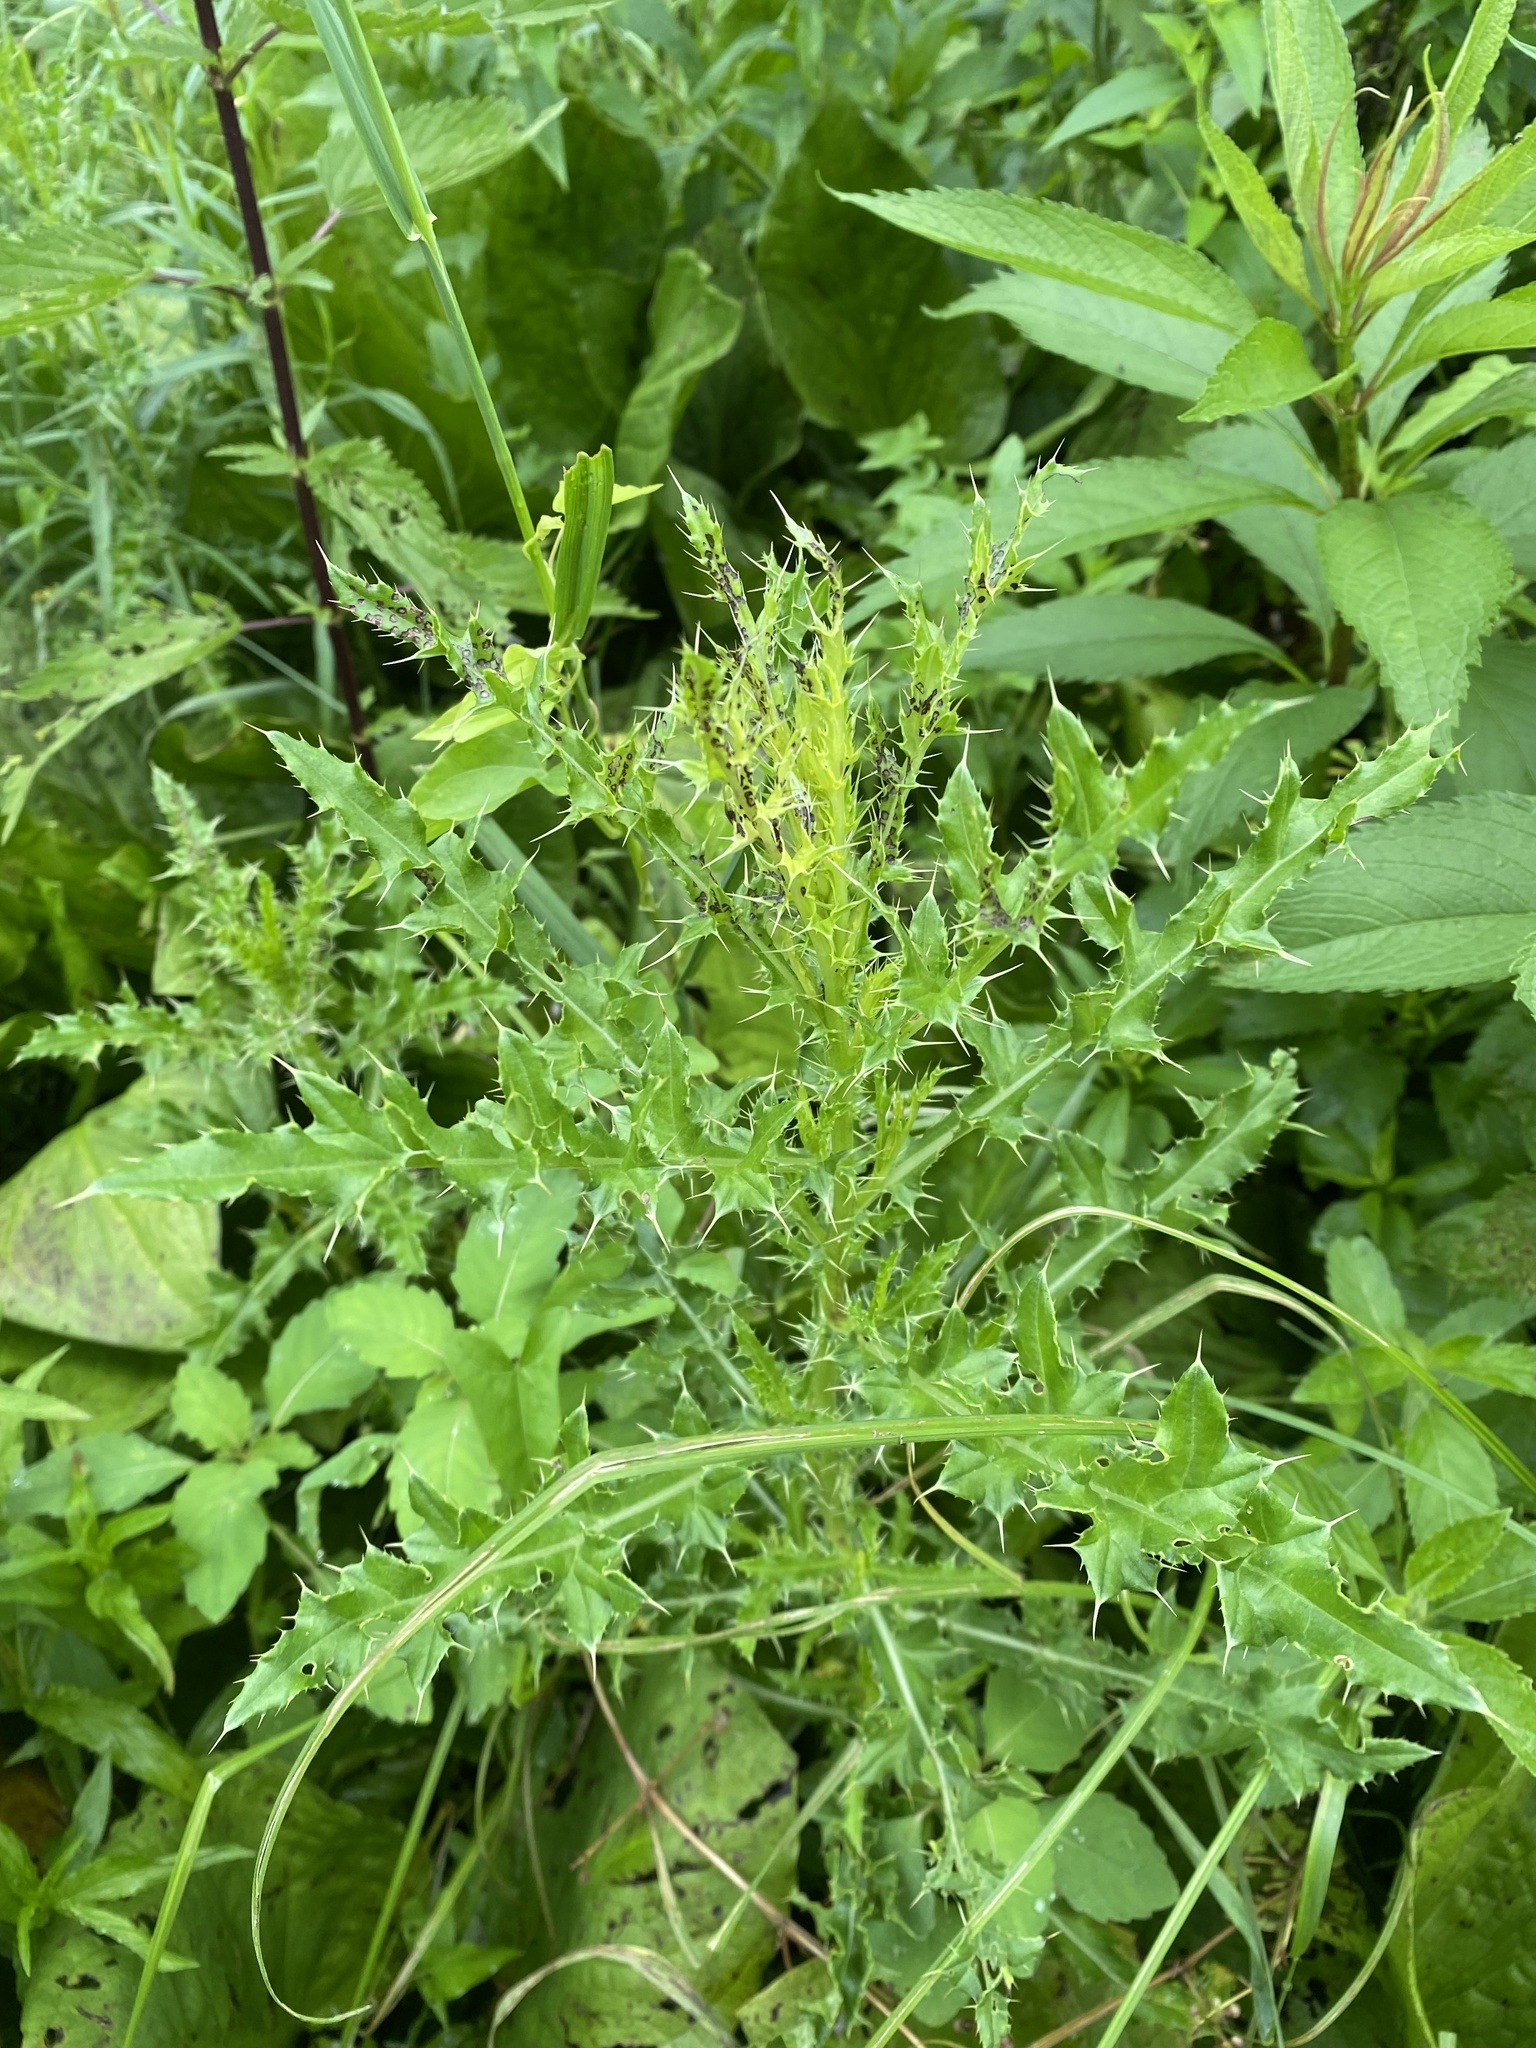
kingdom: Plantae
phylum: Tracheophyta
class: Magnoliopsida
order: Asterales
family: Asteraceae
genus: Cirsium
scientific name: Cirsium arvense
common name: Creeping thistle
